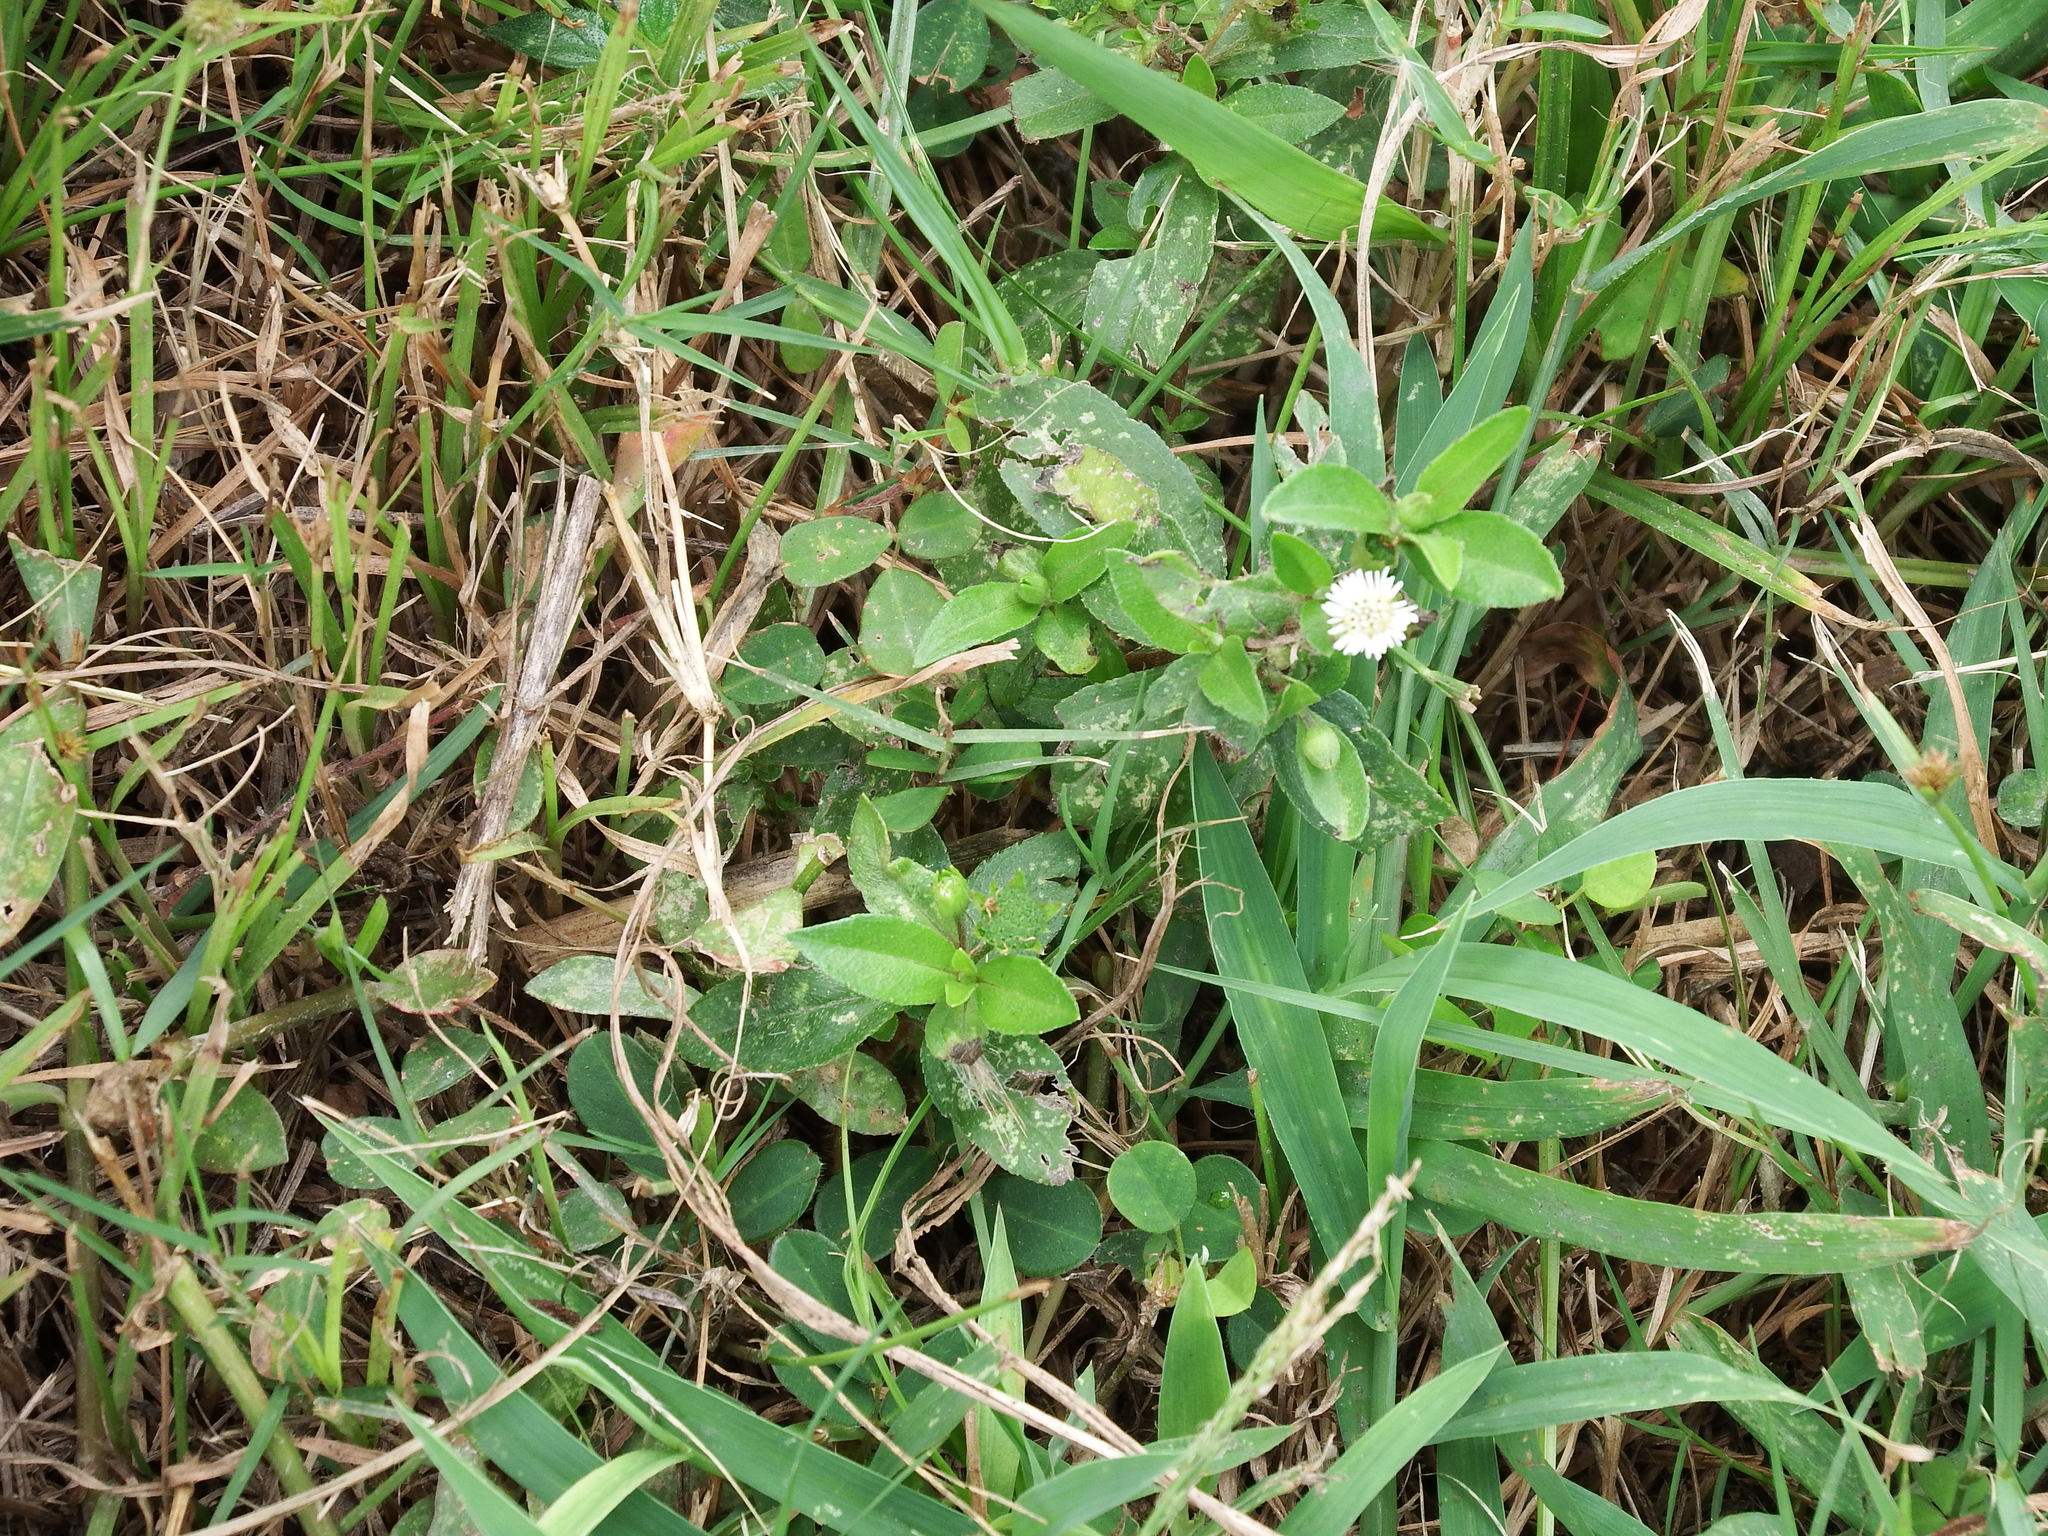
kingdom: Plantae
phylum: Tracheophyta
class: Magnoliopsida
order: Asterales
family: Asteraceae
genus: Eclipta
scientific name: Eclipta prostrata
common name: False daisy
